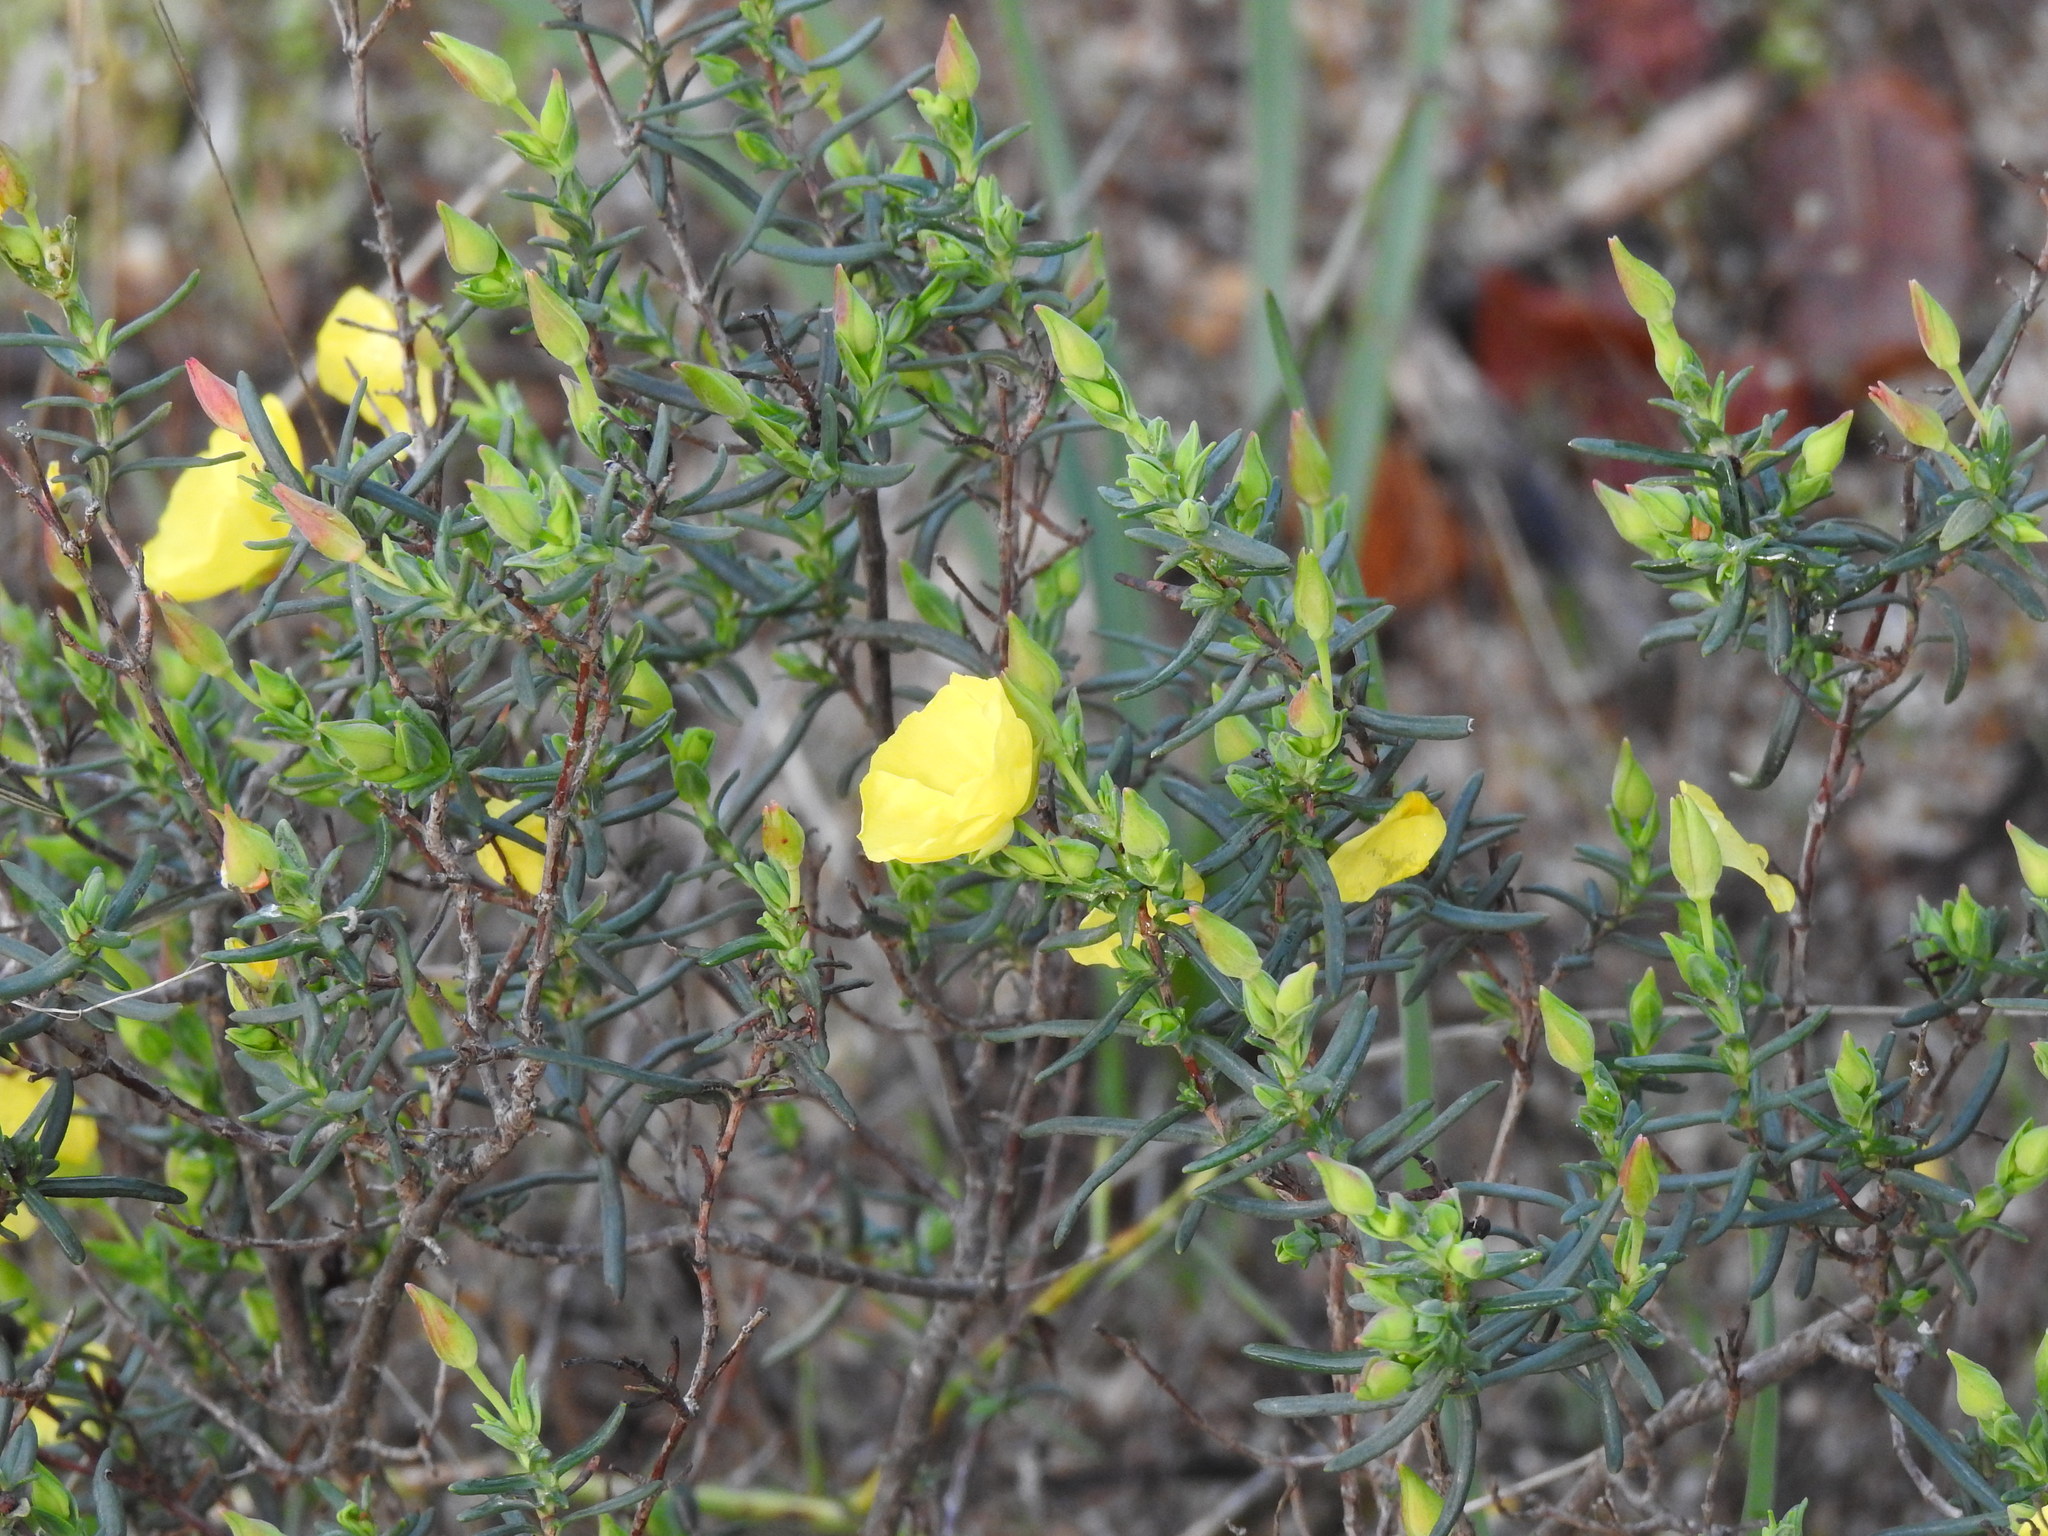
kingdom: Plantae
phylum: Tracheophyta
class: Magnoliopsida
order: Malvales
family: Cistaceae
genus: Halimium
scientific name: Halimium calycinum
